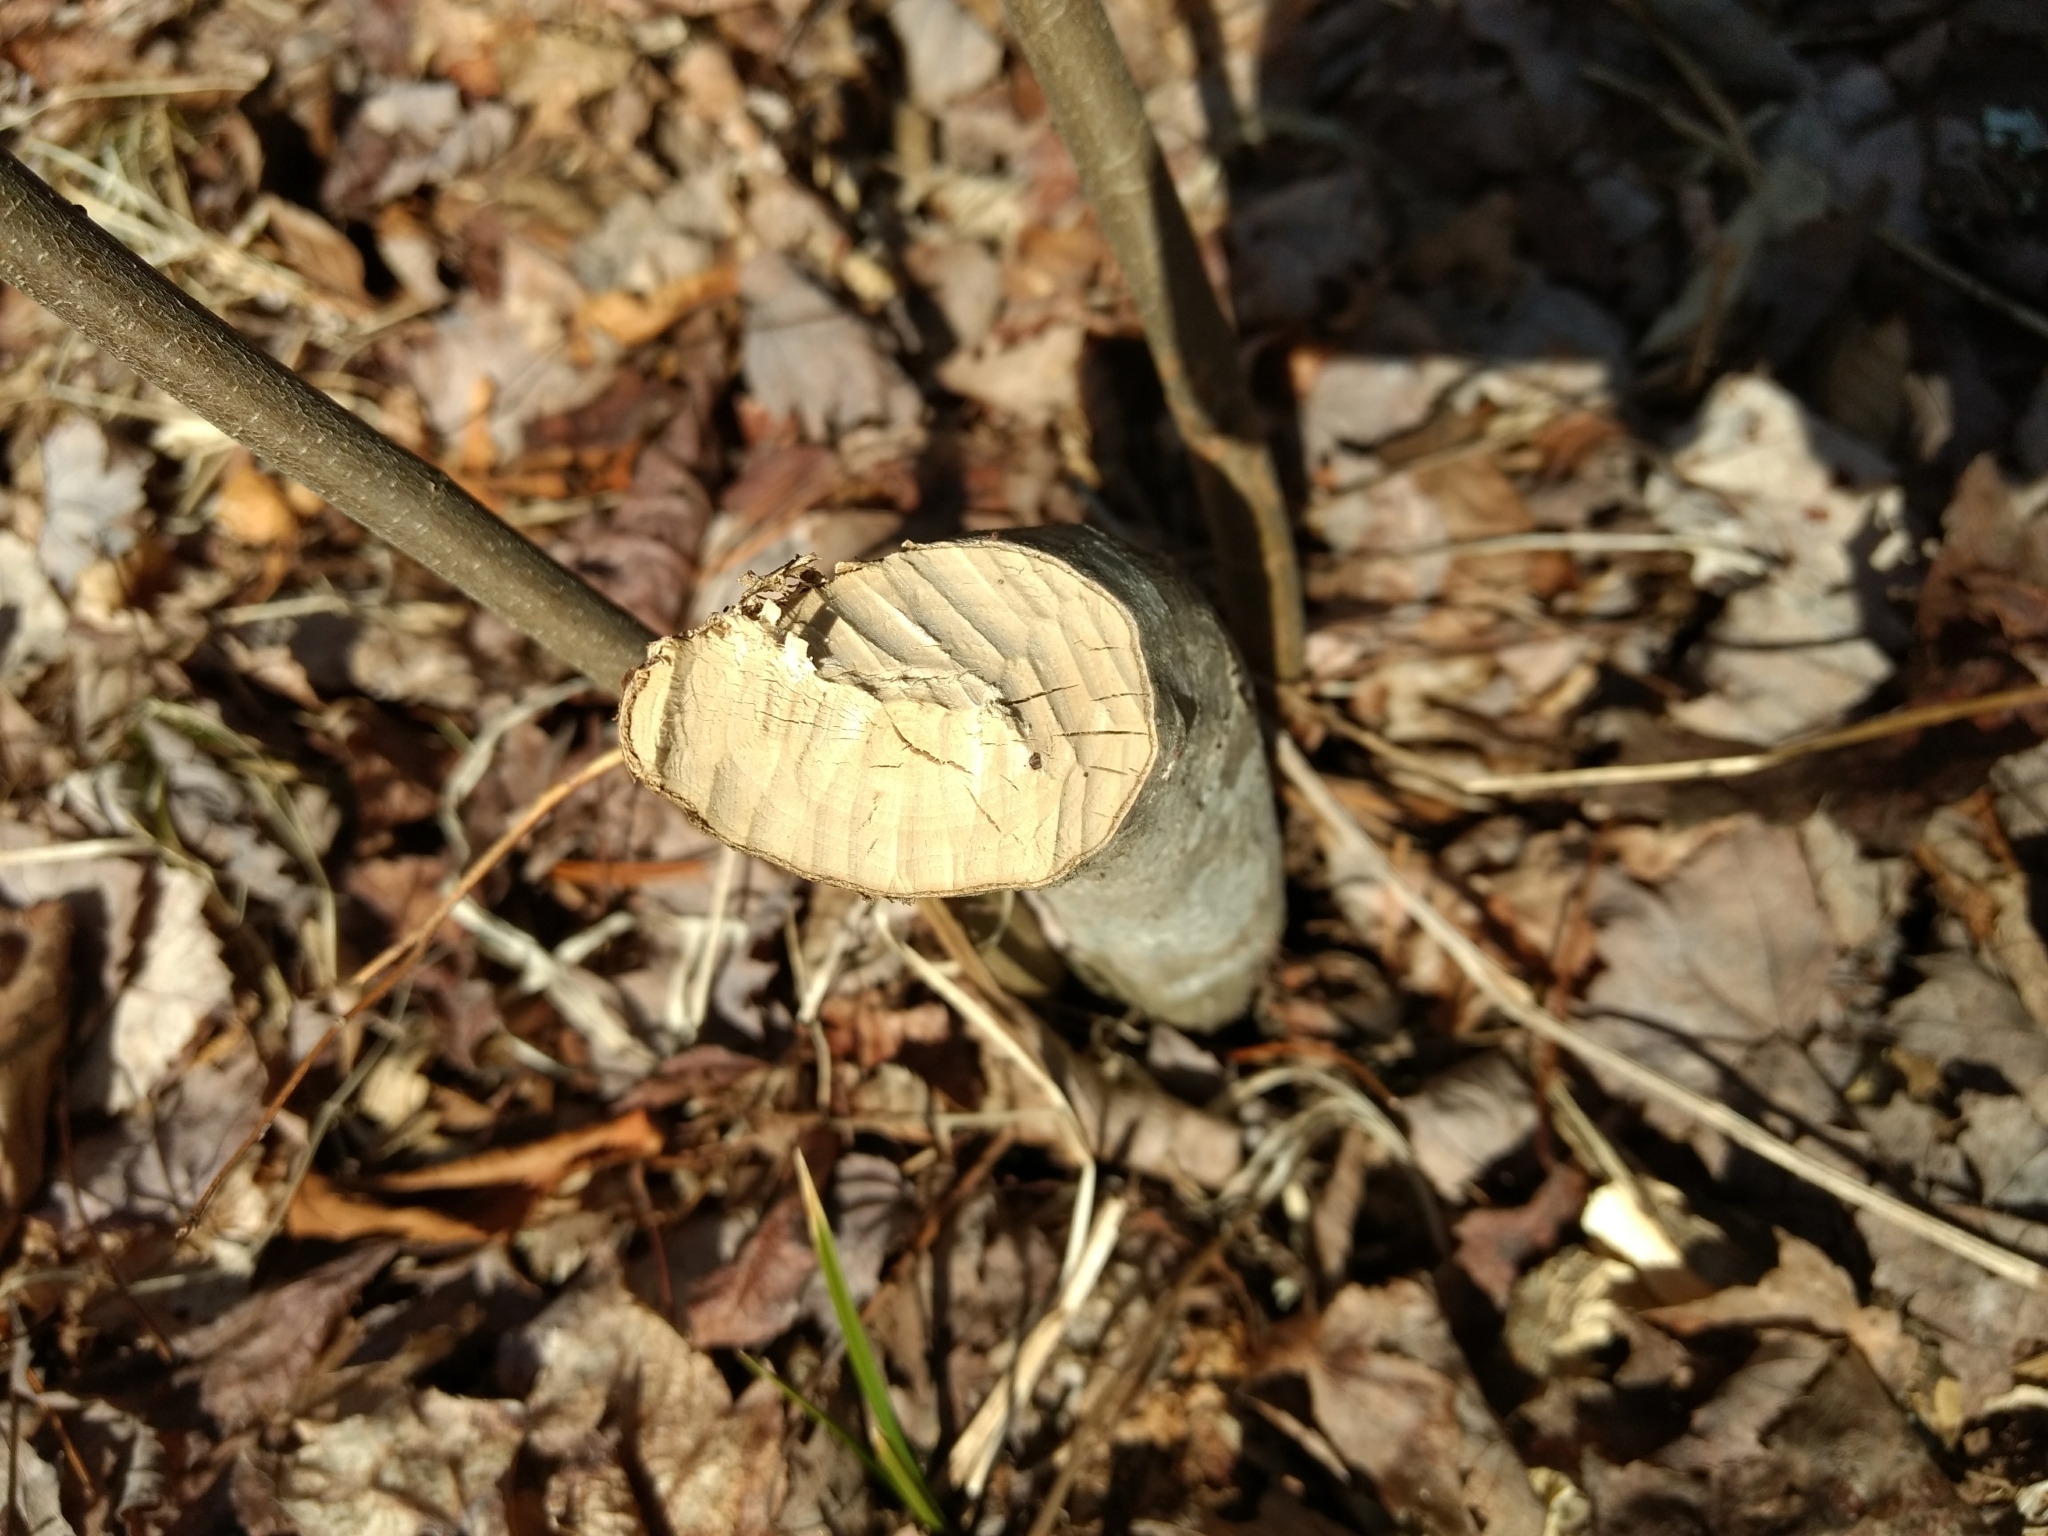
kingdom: Animalia
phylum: Chordata
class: Mammalia
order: Rodentia
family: Castoridae
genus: Castor
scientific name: Castor canadensis
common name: American beaver
